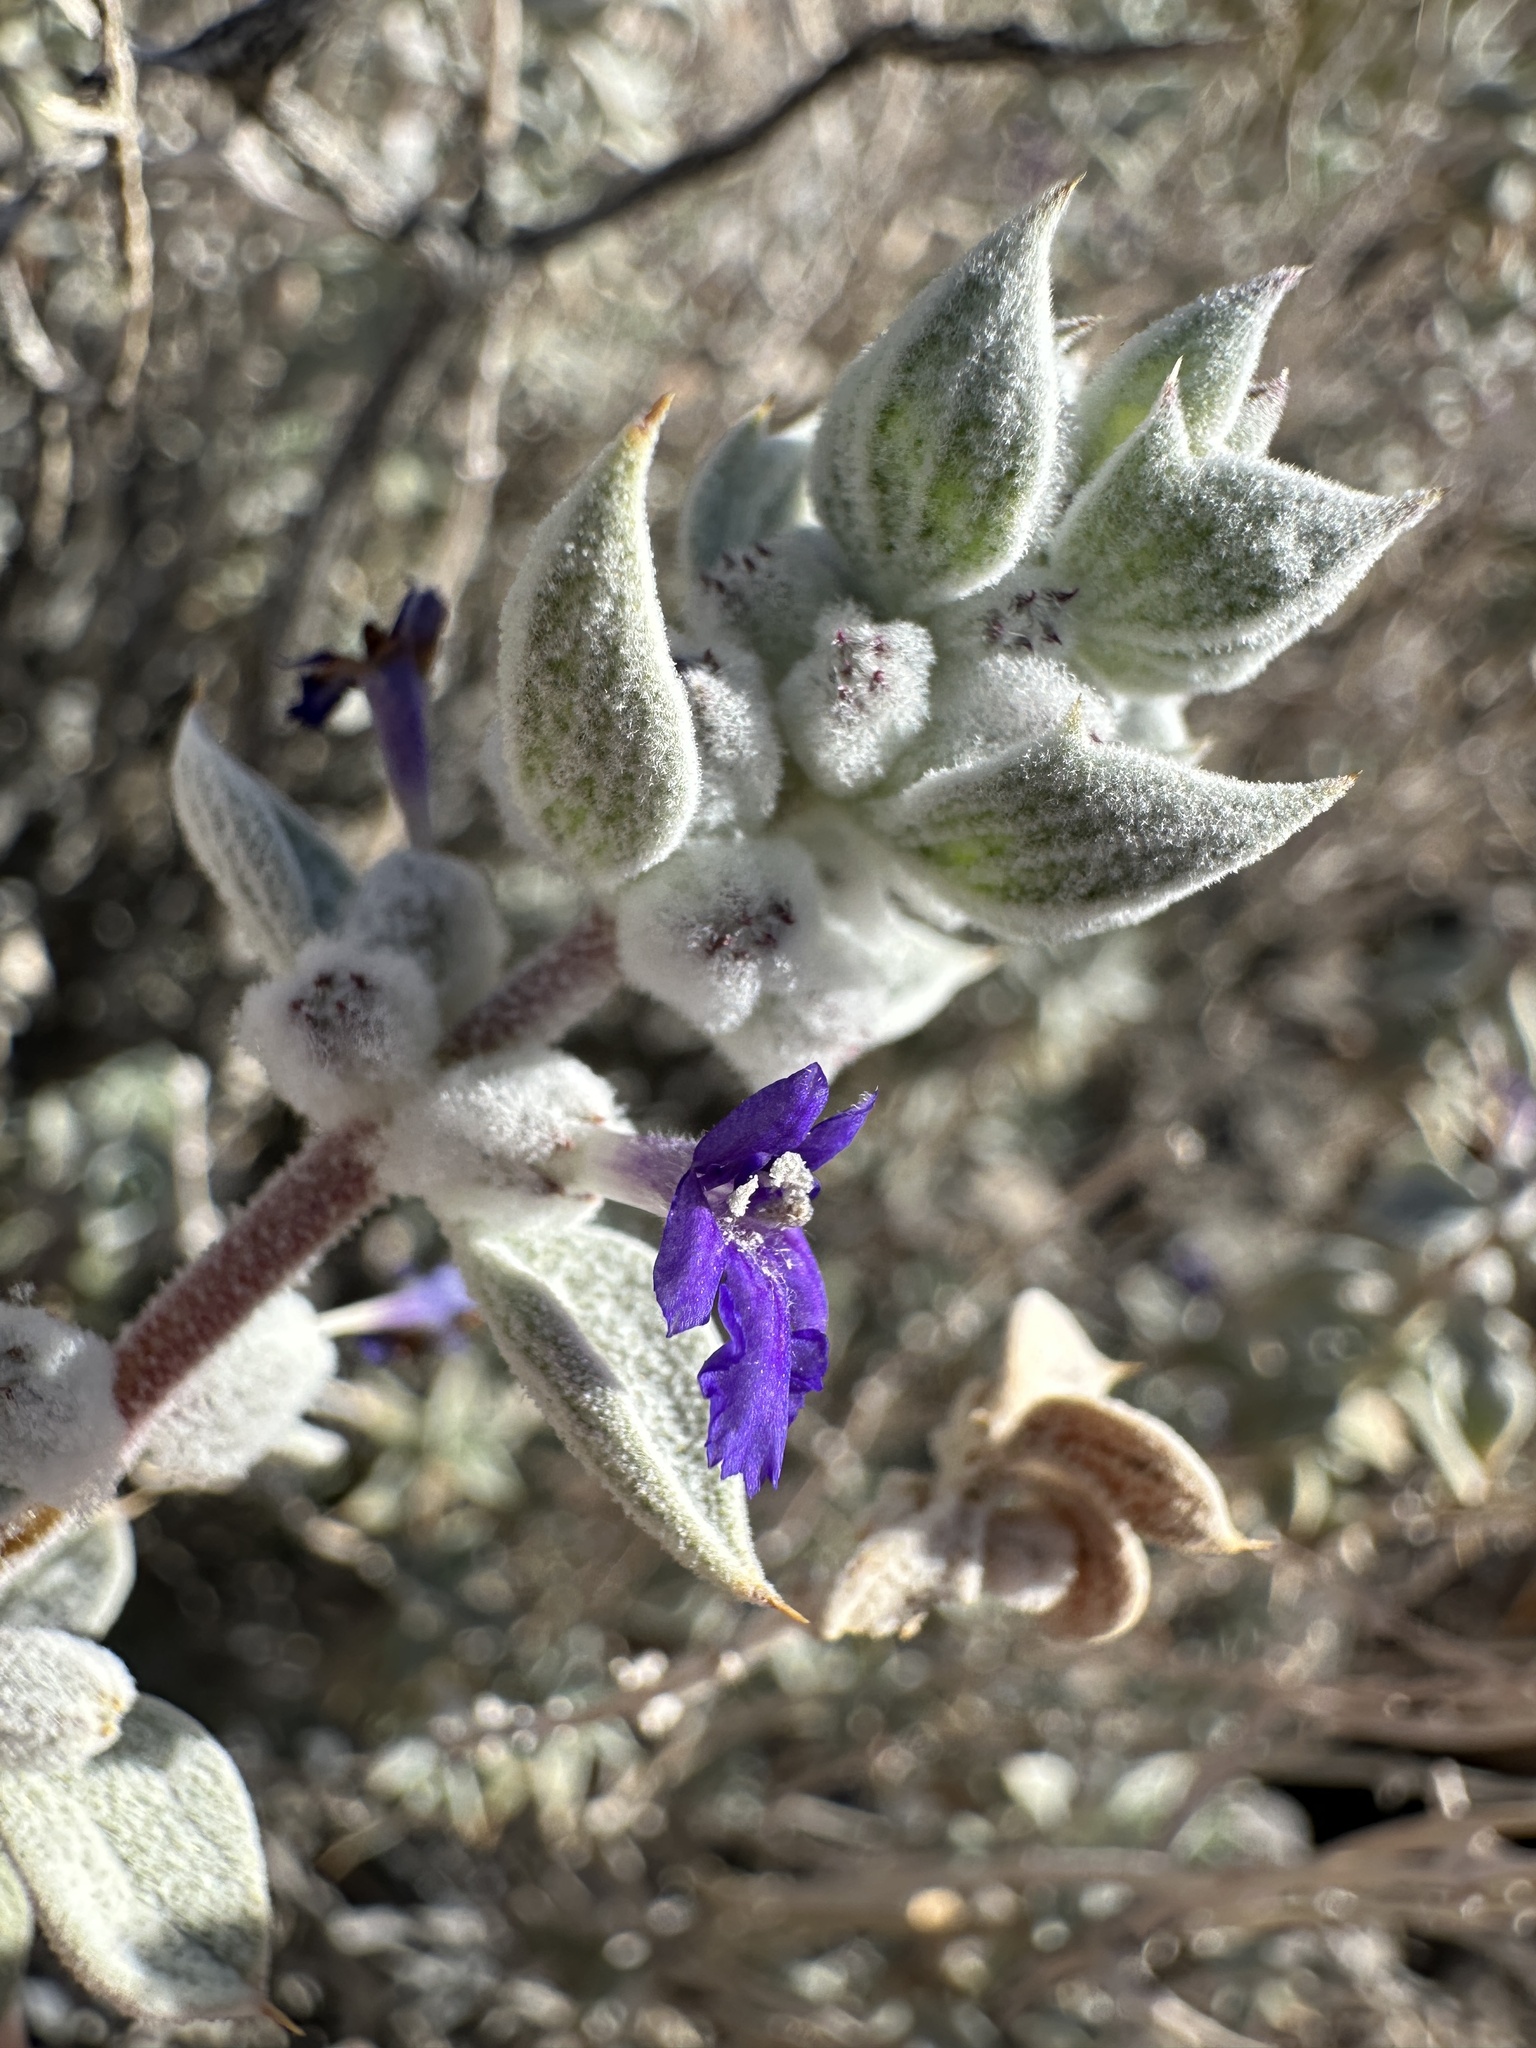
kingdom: Plantae
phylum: Tracheophyta
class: Magnoliopsida
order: Lamiales
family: Lamiaceae
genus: Salvia
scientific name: Salvia funerea
